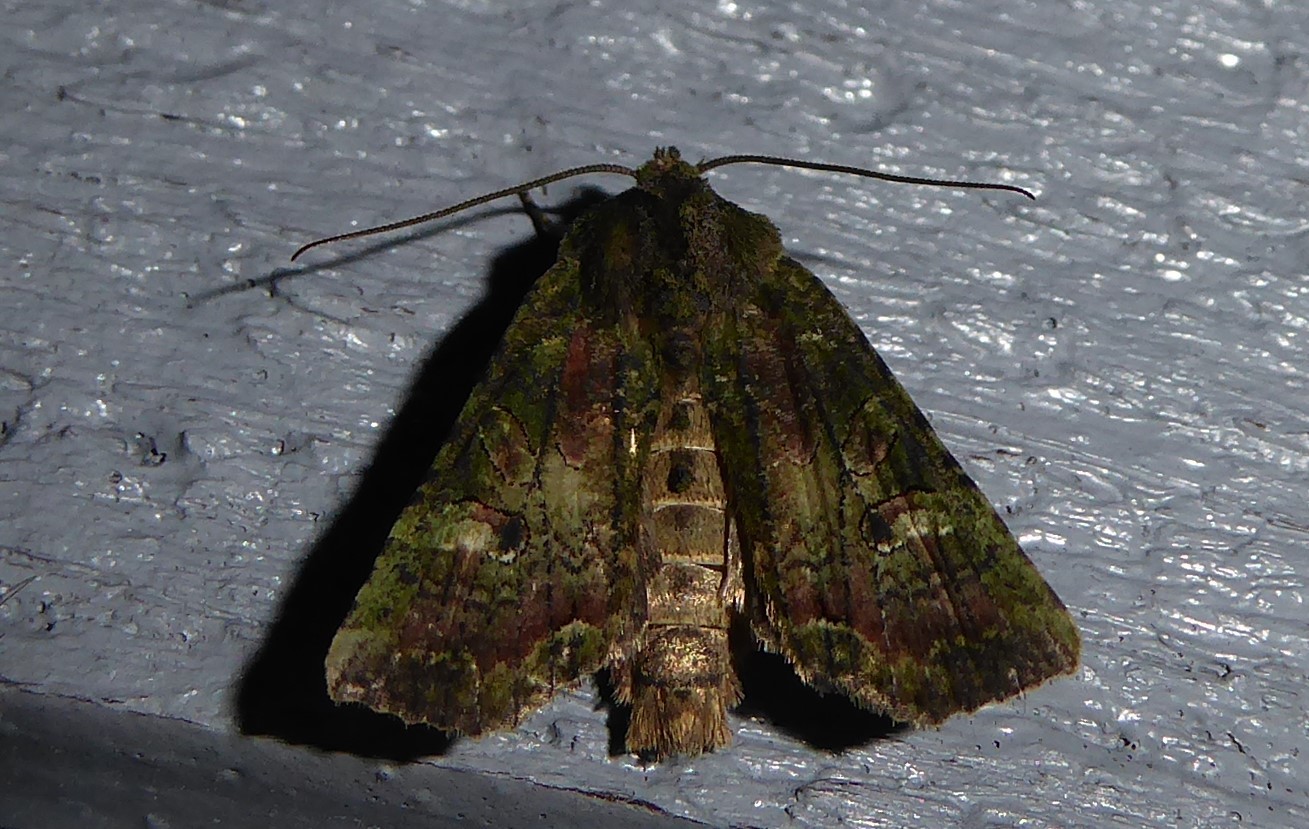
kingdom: Animalia
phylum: Arthropoda
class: Insecta
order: Lepidoptera
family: Noctuidae
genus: Meterana
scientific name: Meterana levis
